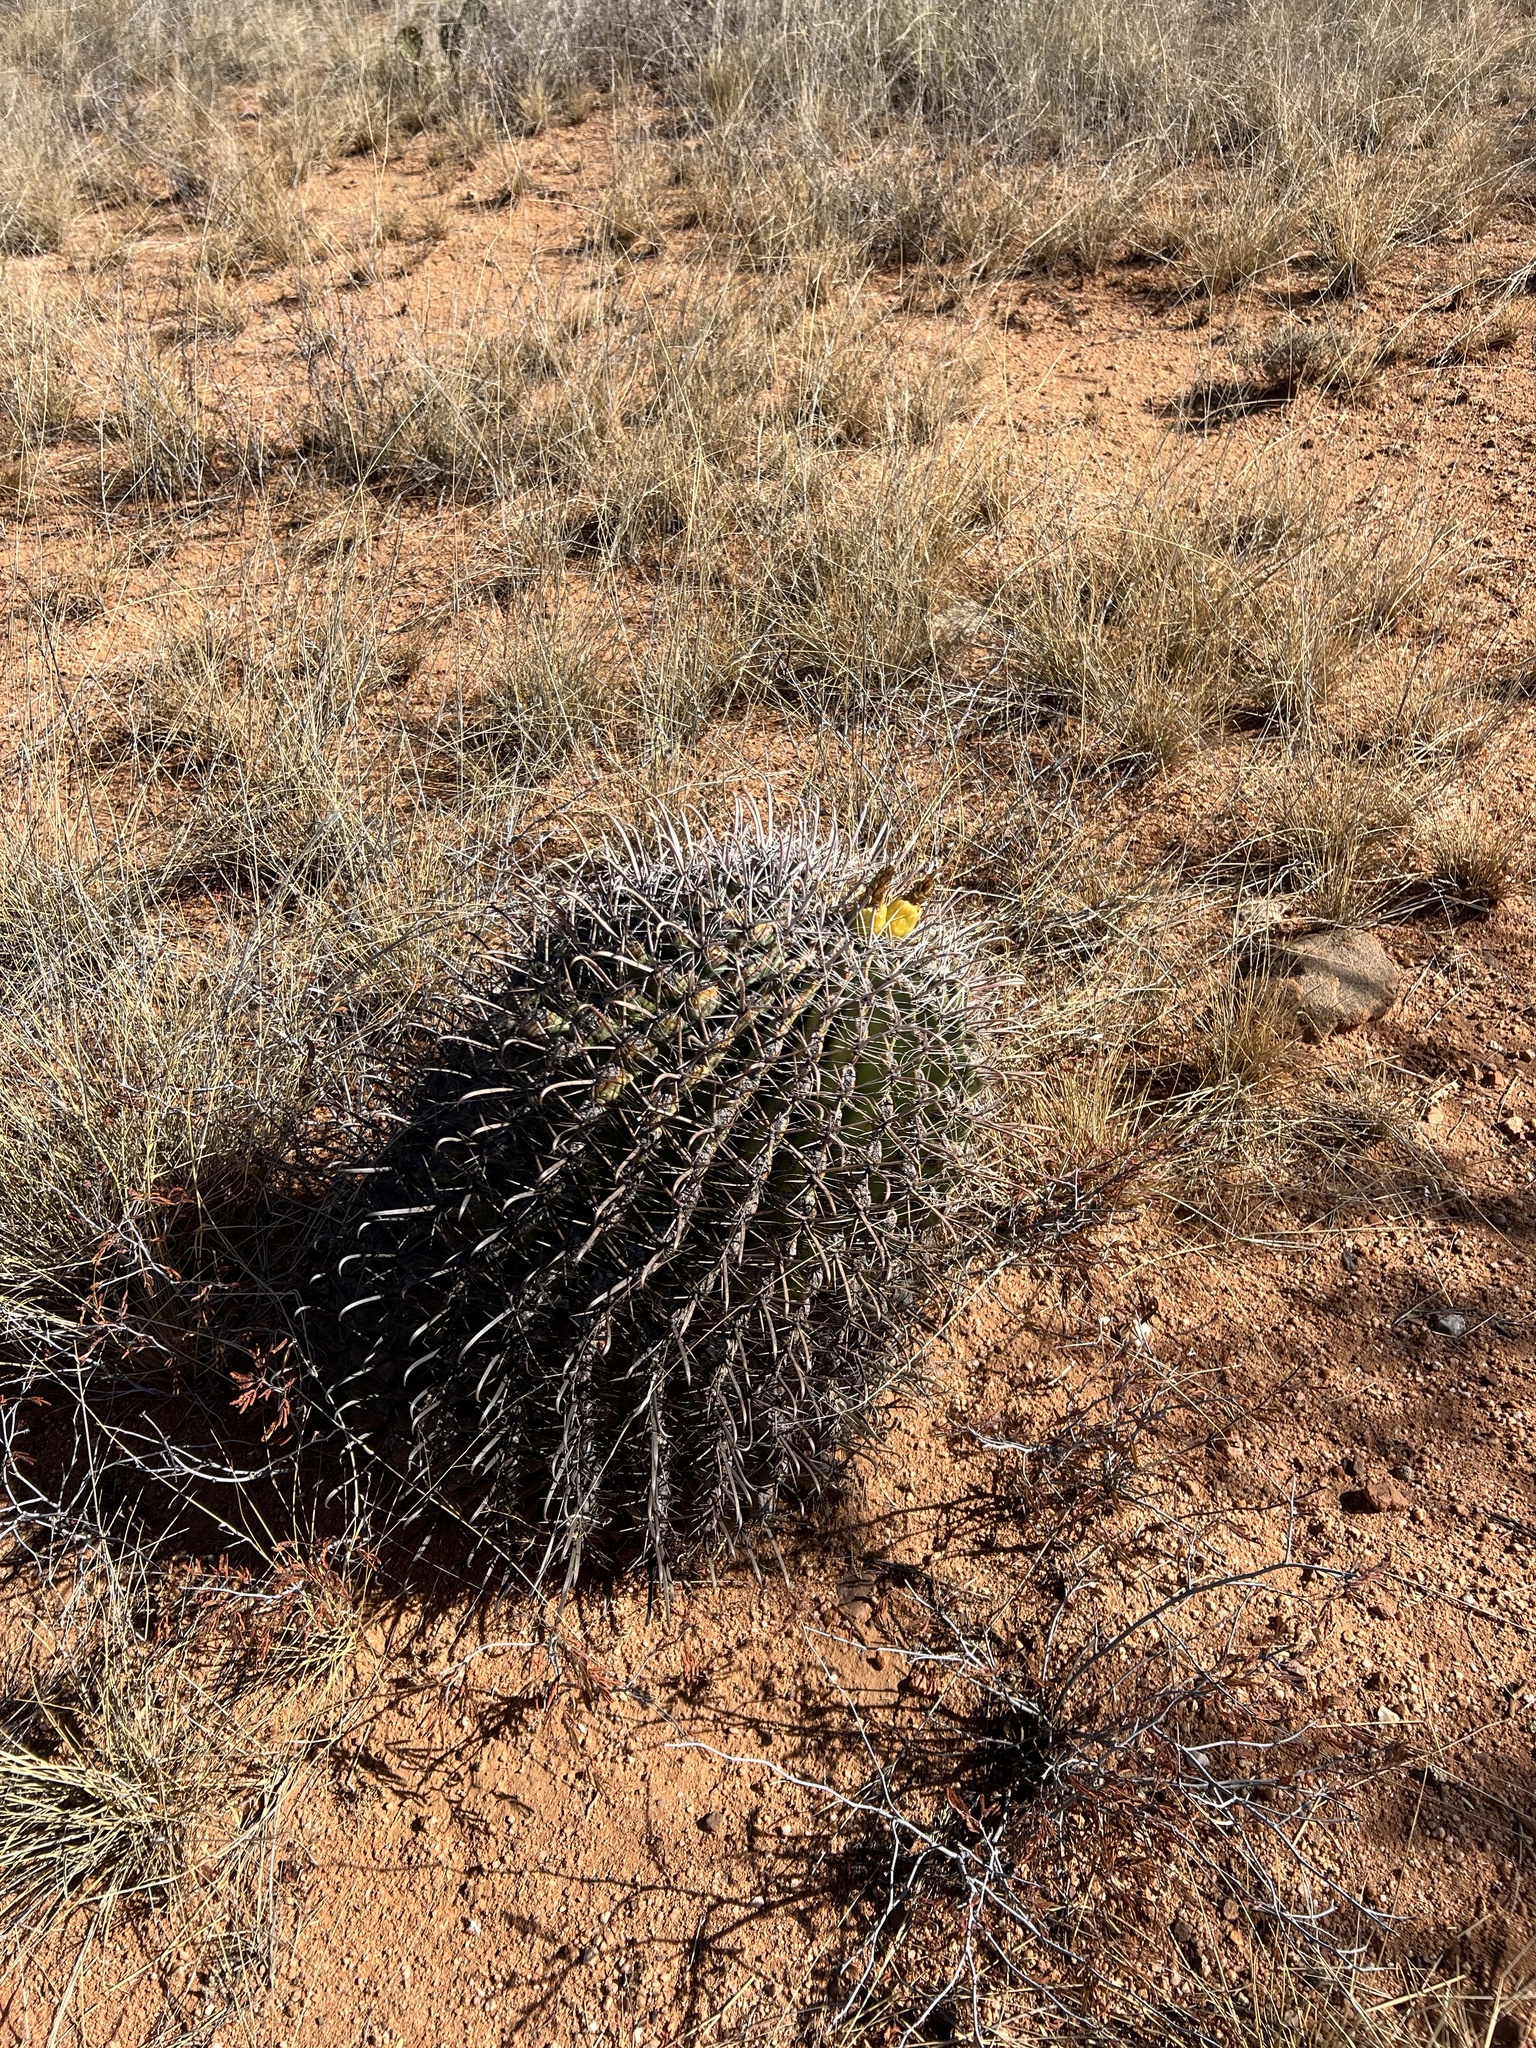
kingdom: Plantae
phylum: Tracheophyta
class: Magnoliopsida
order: Caryophyllales
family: Cactaceae
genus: Ferocactus
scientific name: Ferocactus wislizeni
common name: Candy barrel cactus
